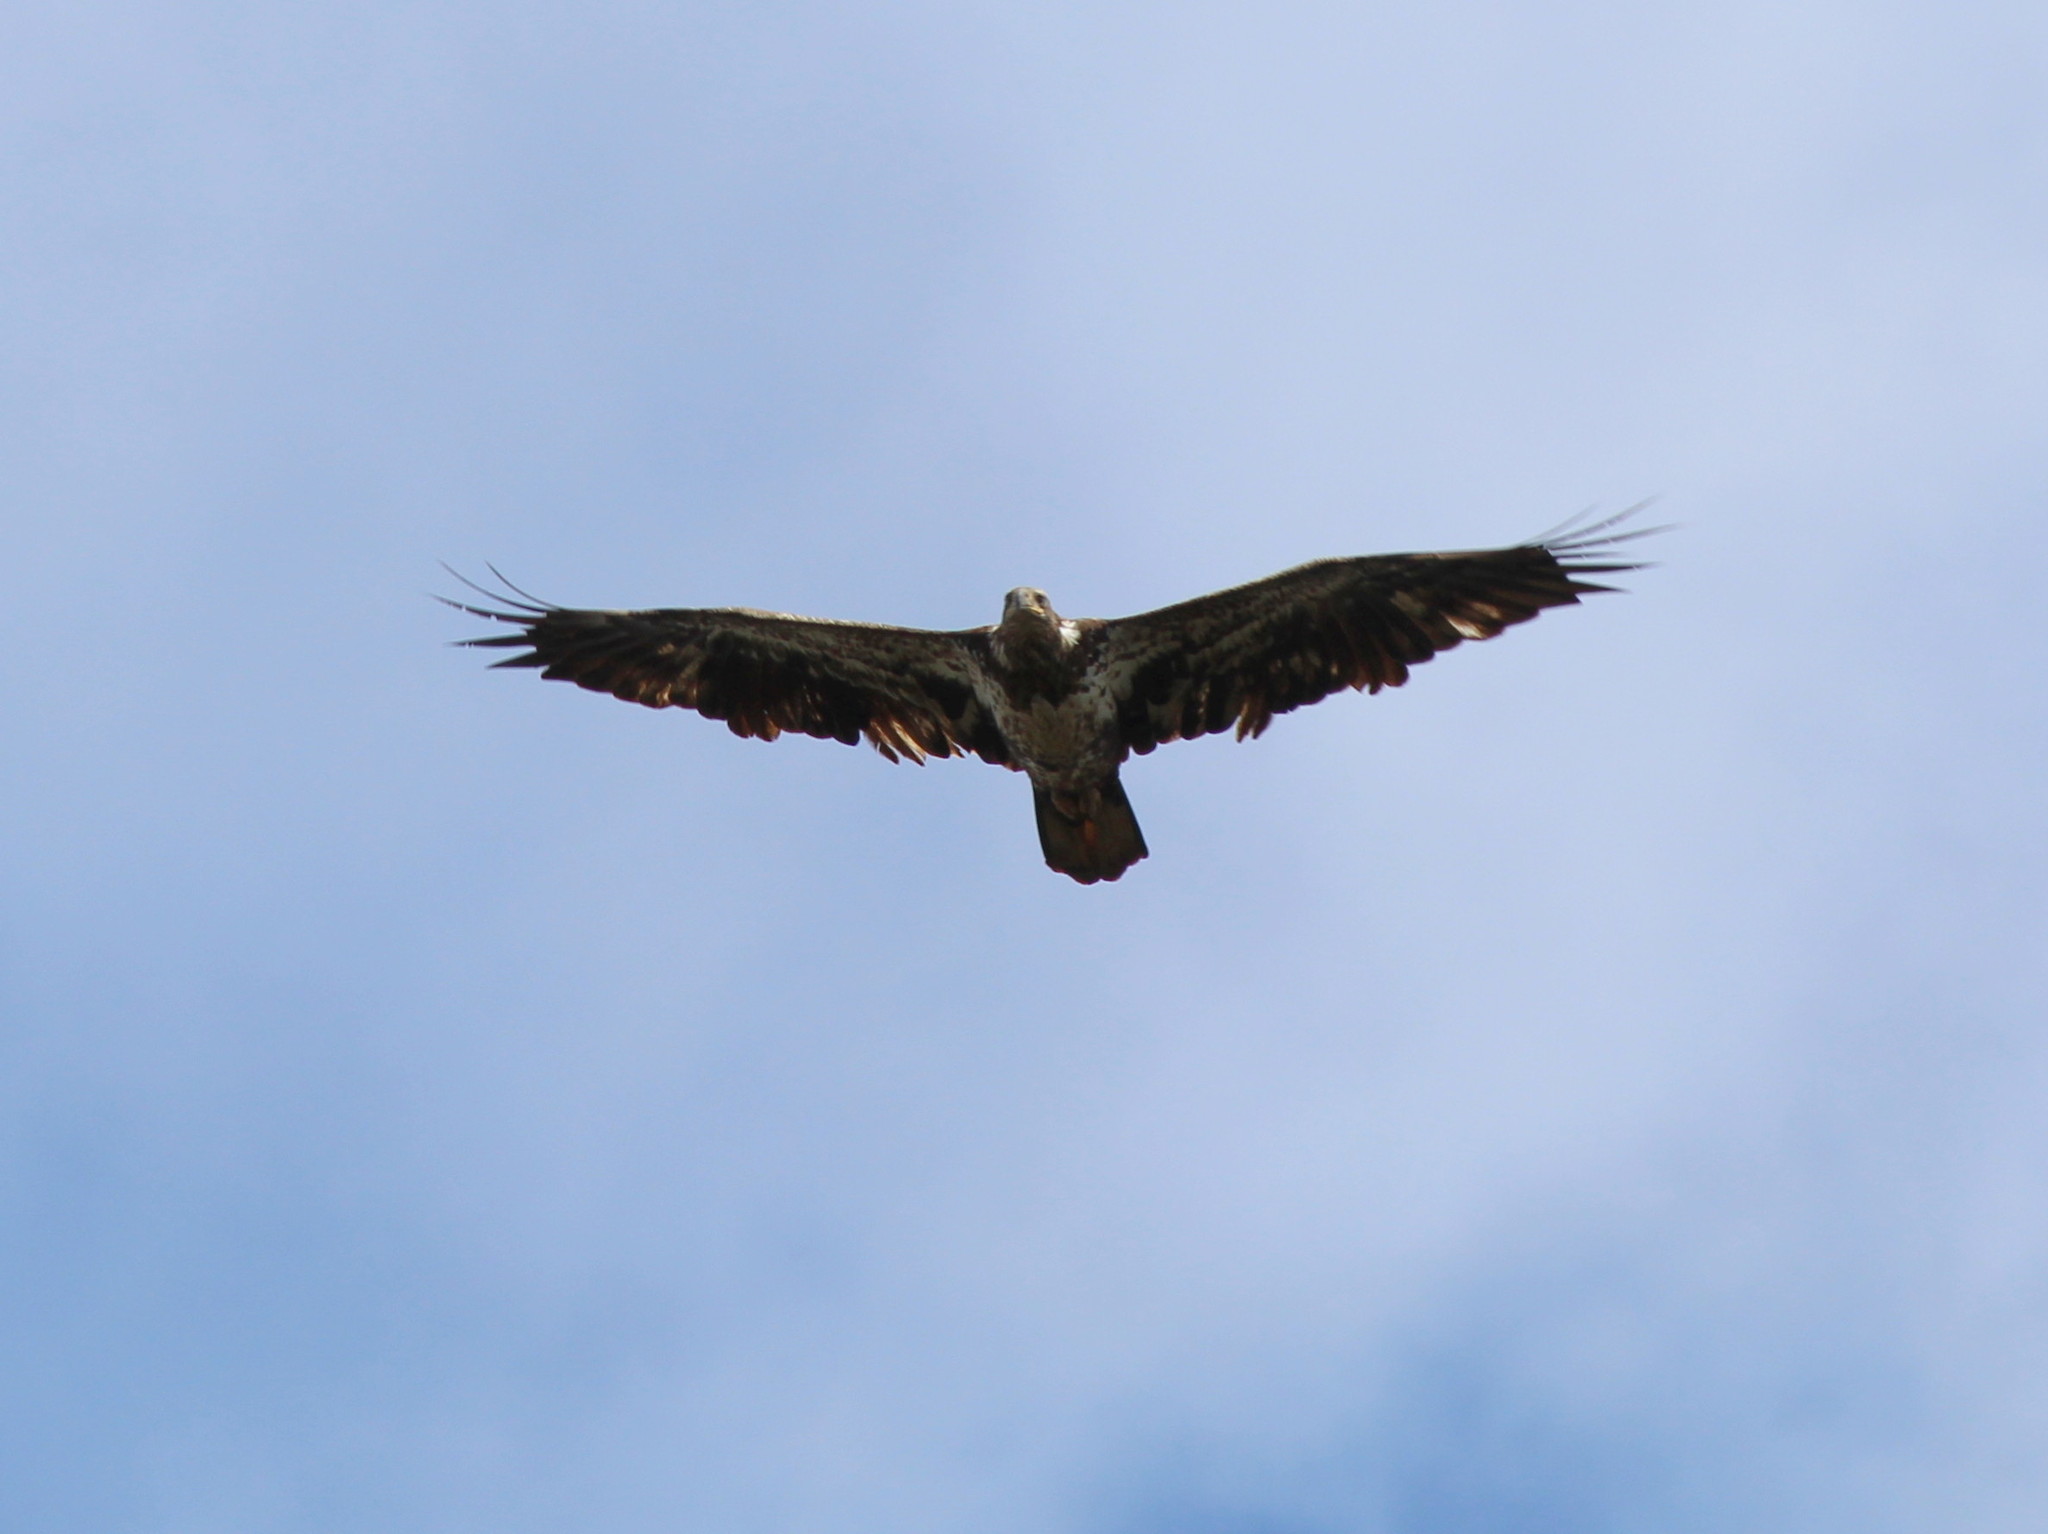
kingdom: Animalia
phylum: Chordata
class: Aves
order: Accipitriformes
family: Accipitridae
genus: Haliaeetus
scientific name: Haliaeetus leucocephalus
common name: Bald eagle
